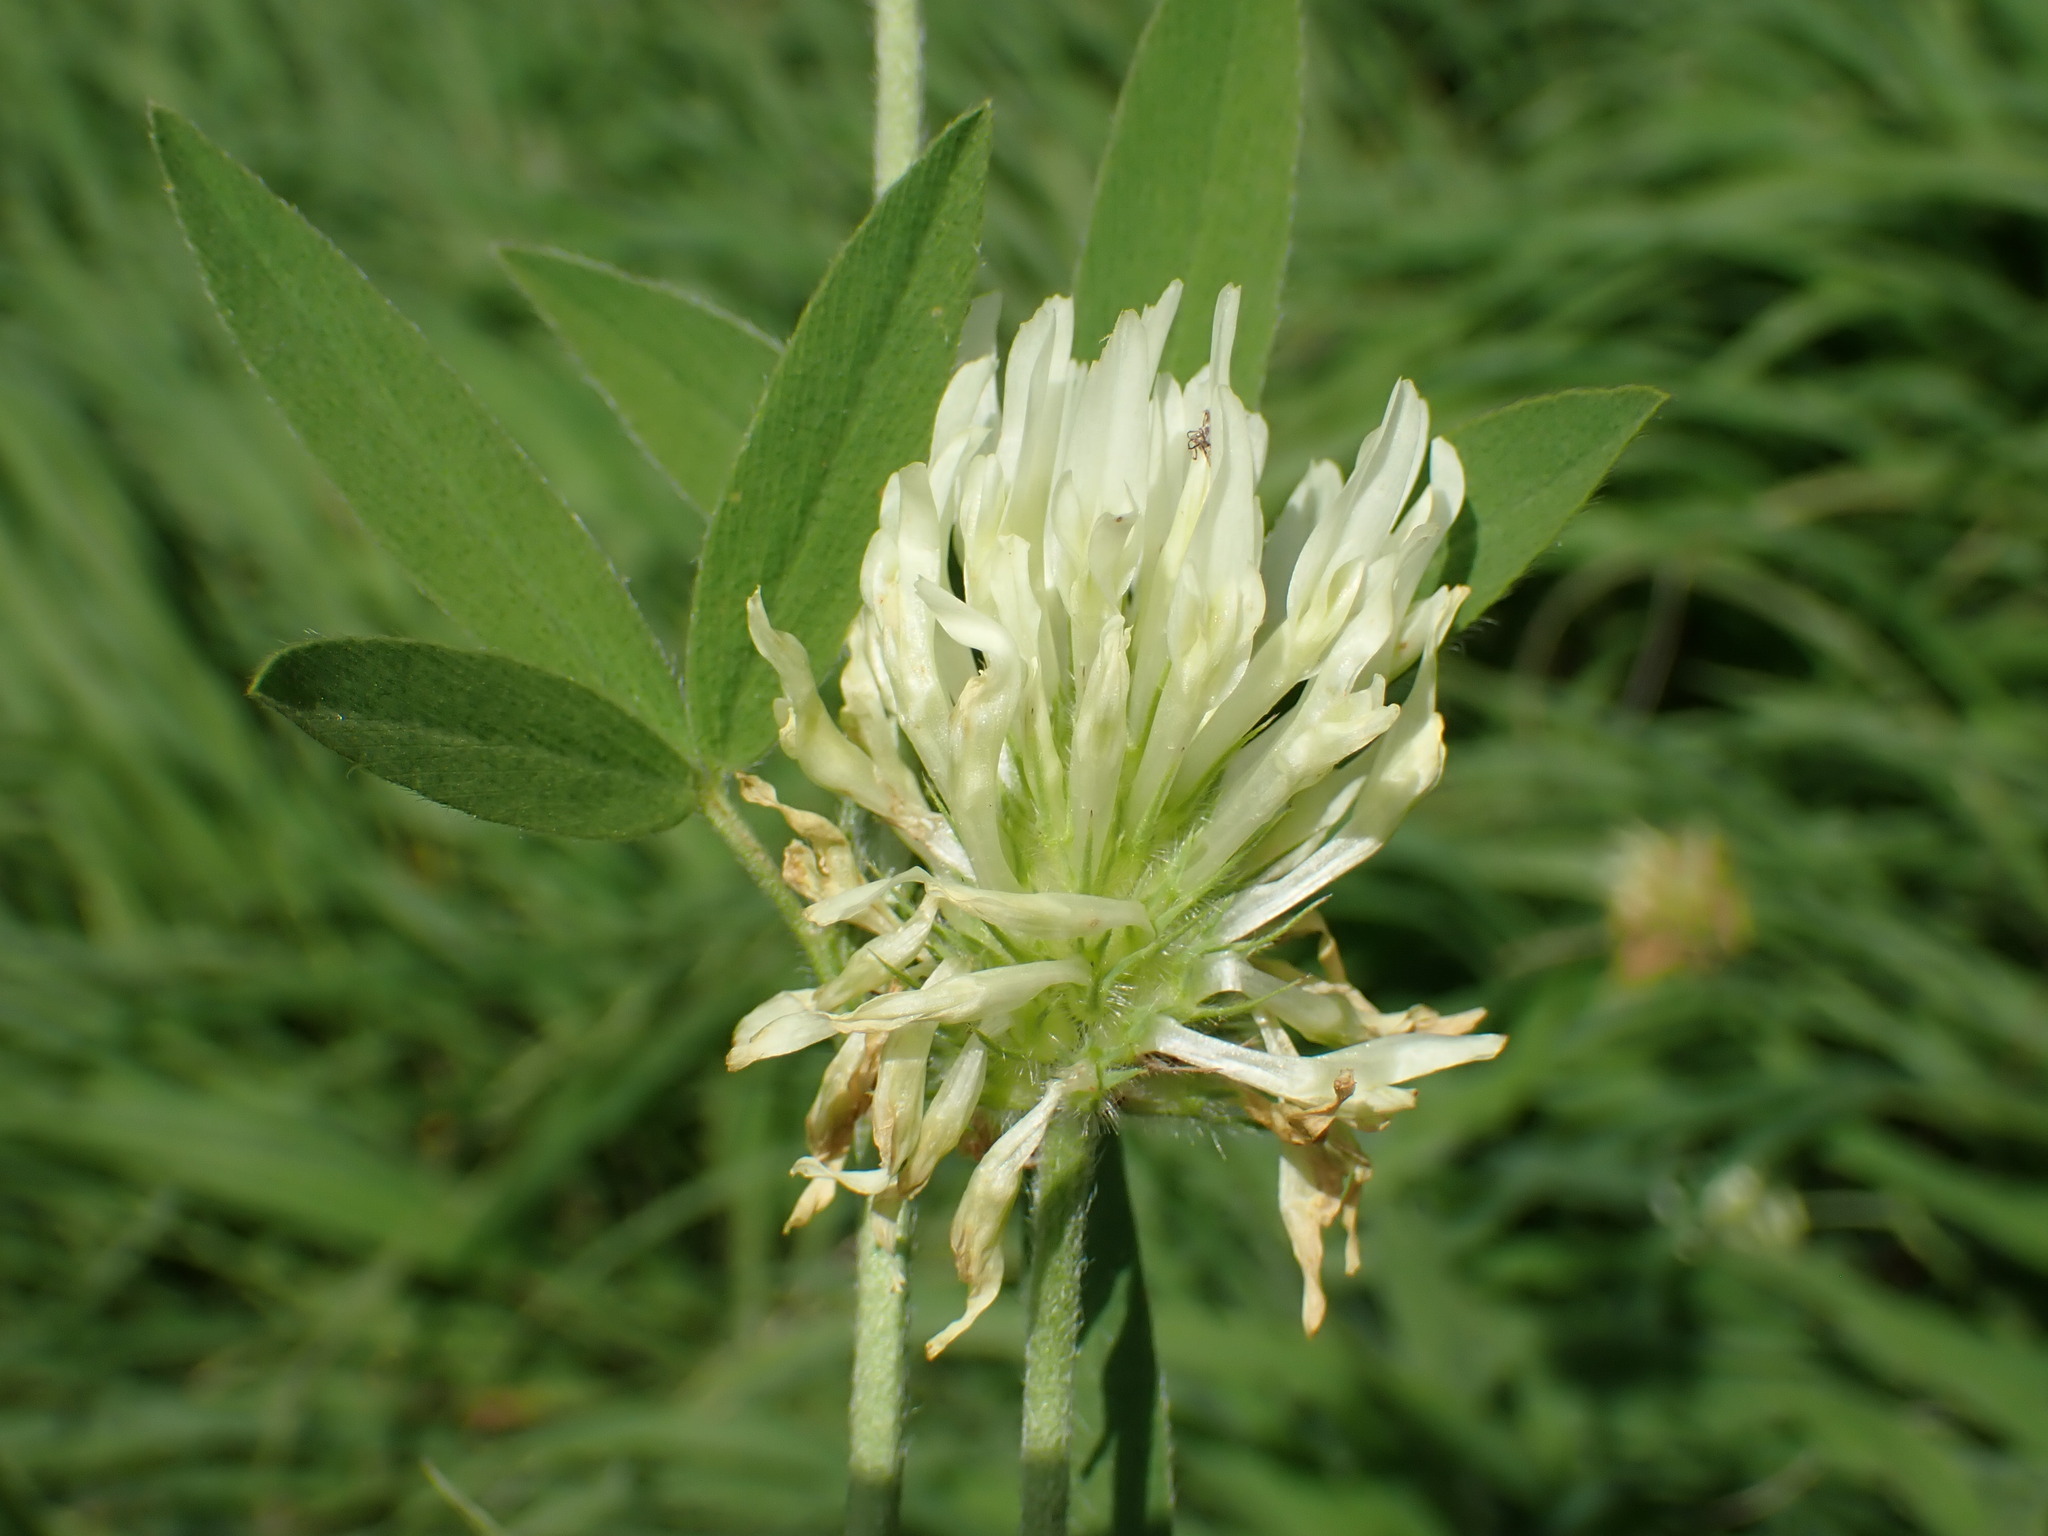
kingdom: Plantae
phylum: Tracheophyta
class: Magnoliopsida
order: Fabales
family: Fabaceae
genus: Trifolium
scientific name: Trifolium ochroleucon
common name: Sulphur clover
